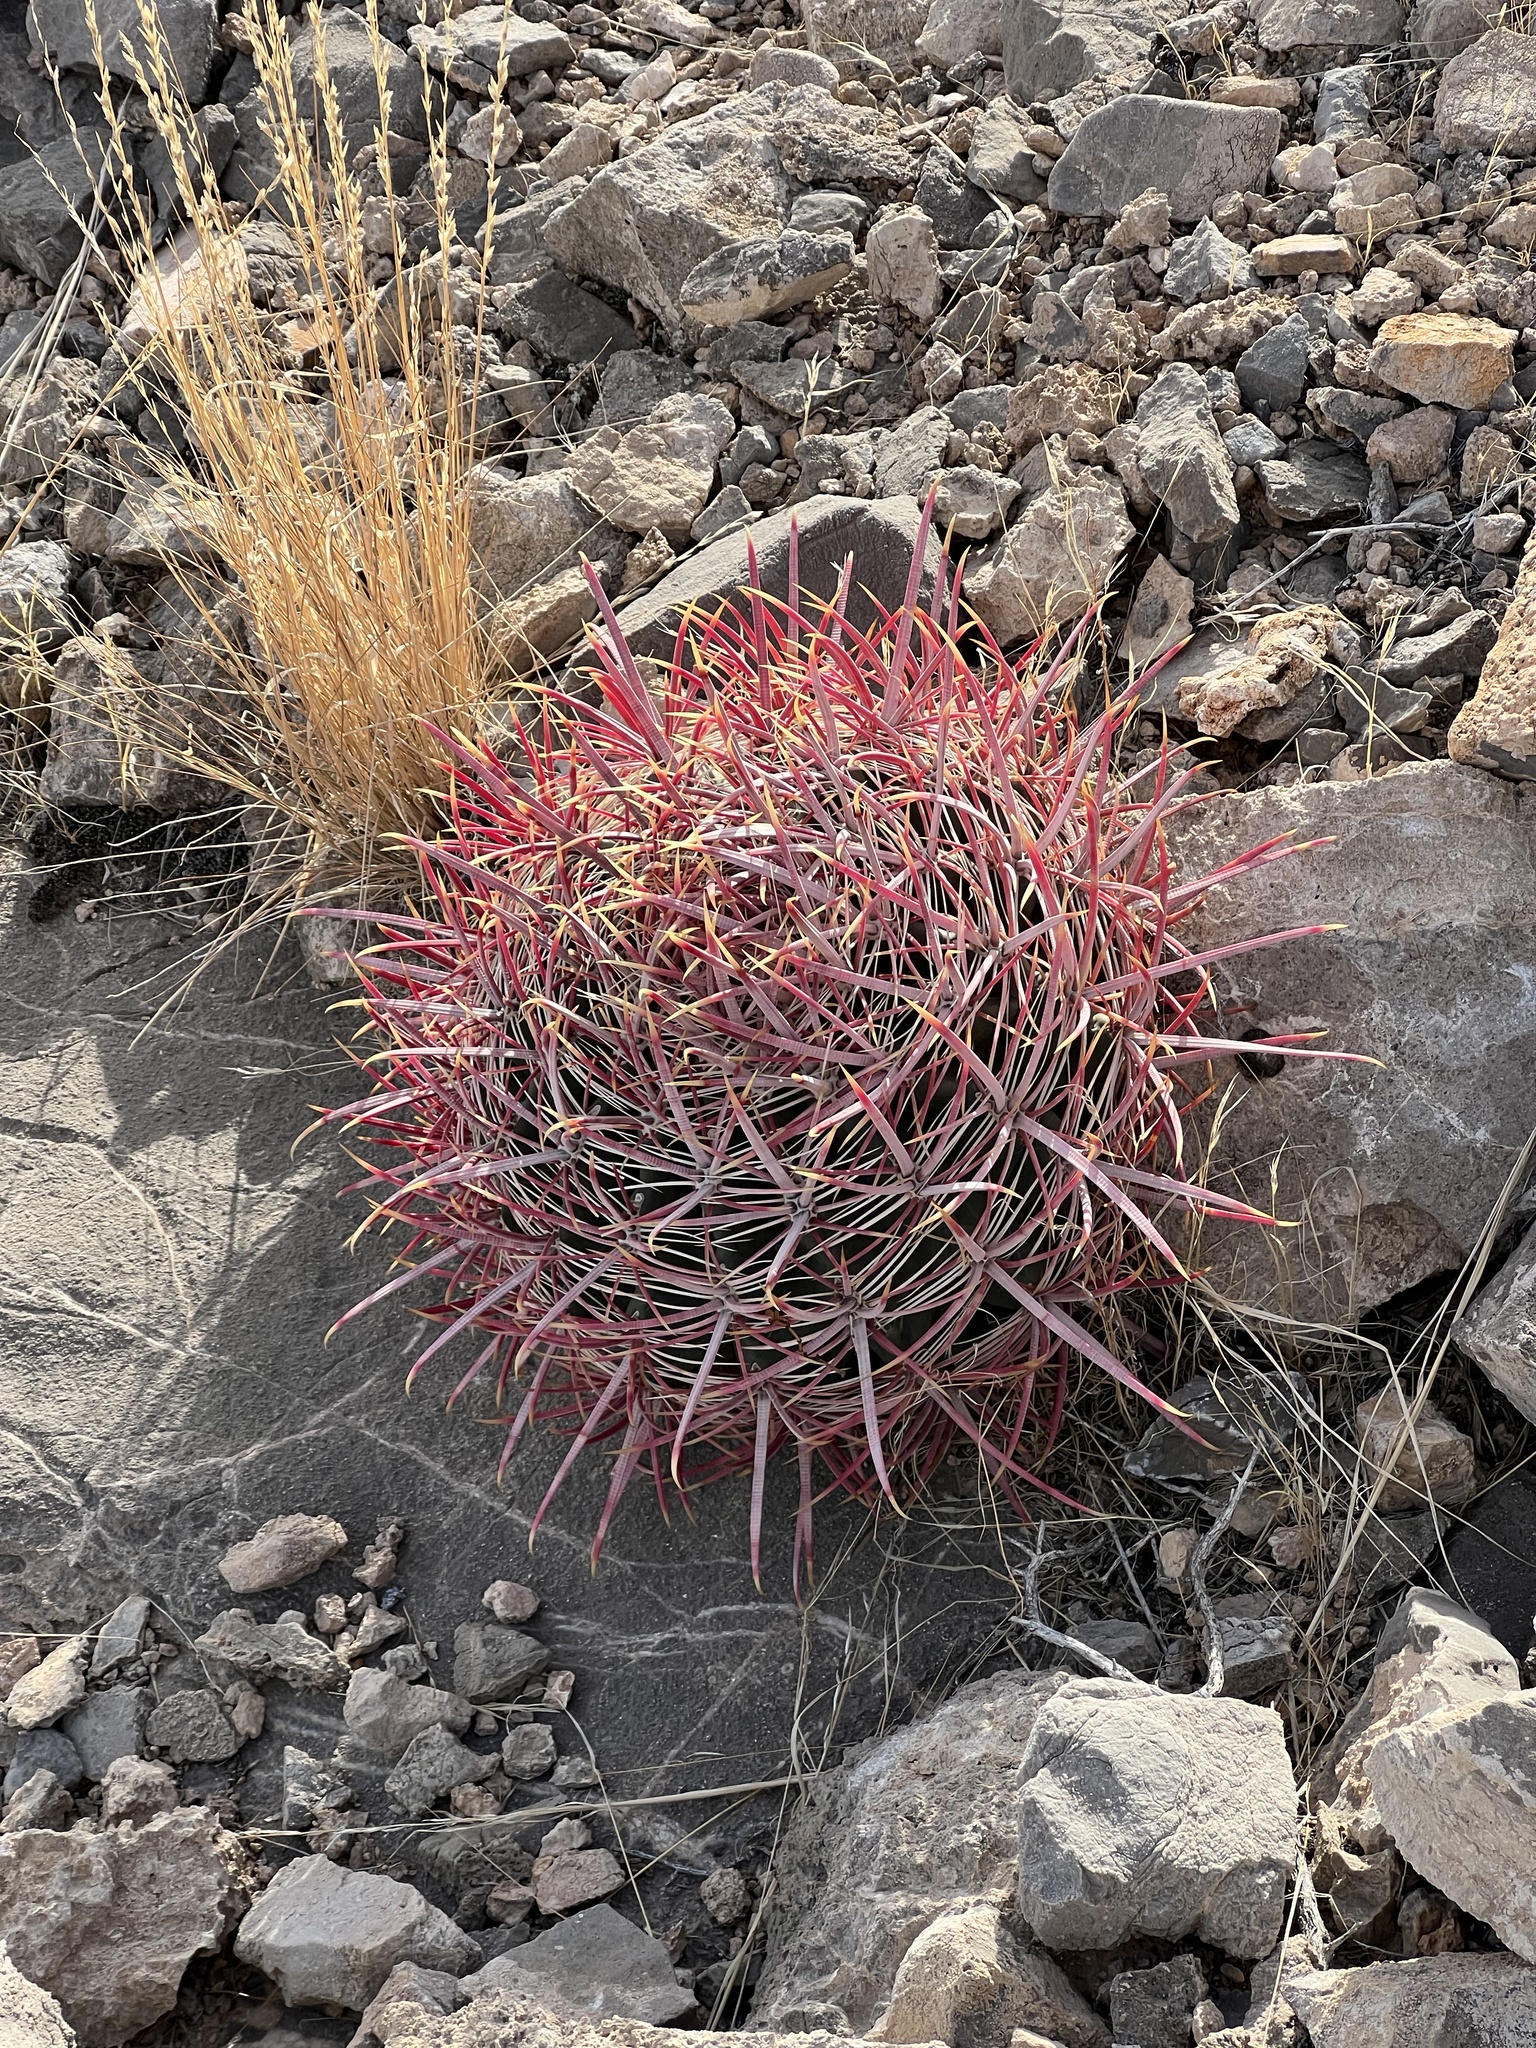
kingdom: Plantae
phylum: Tracheophyta
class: Magnoliopsida
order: Caryophyllales
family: Cactaceae
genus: Ferocactus
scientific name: Ferocactus cylindraceus
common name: California barrel cactus
